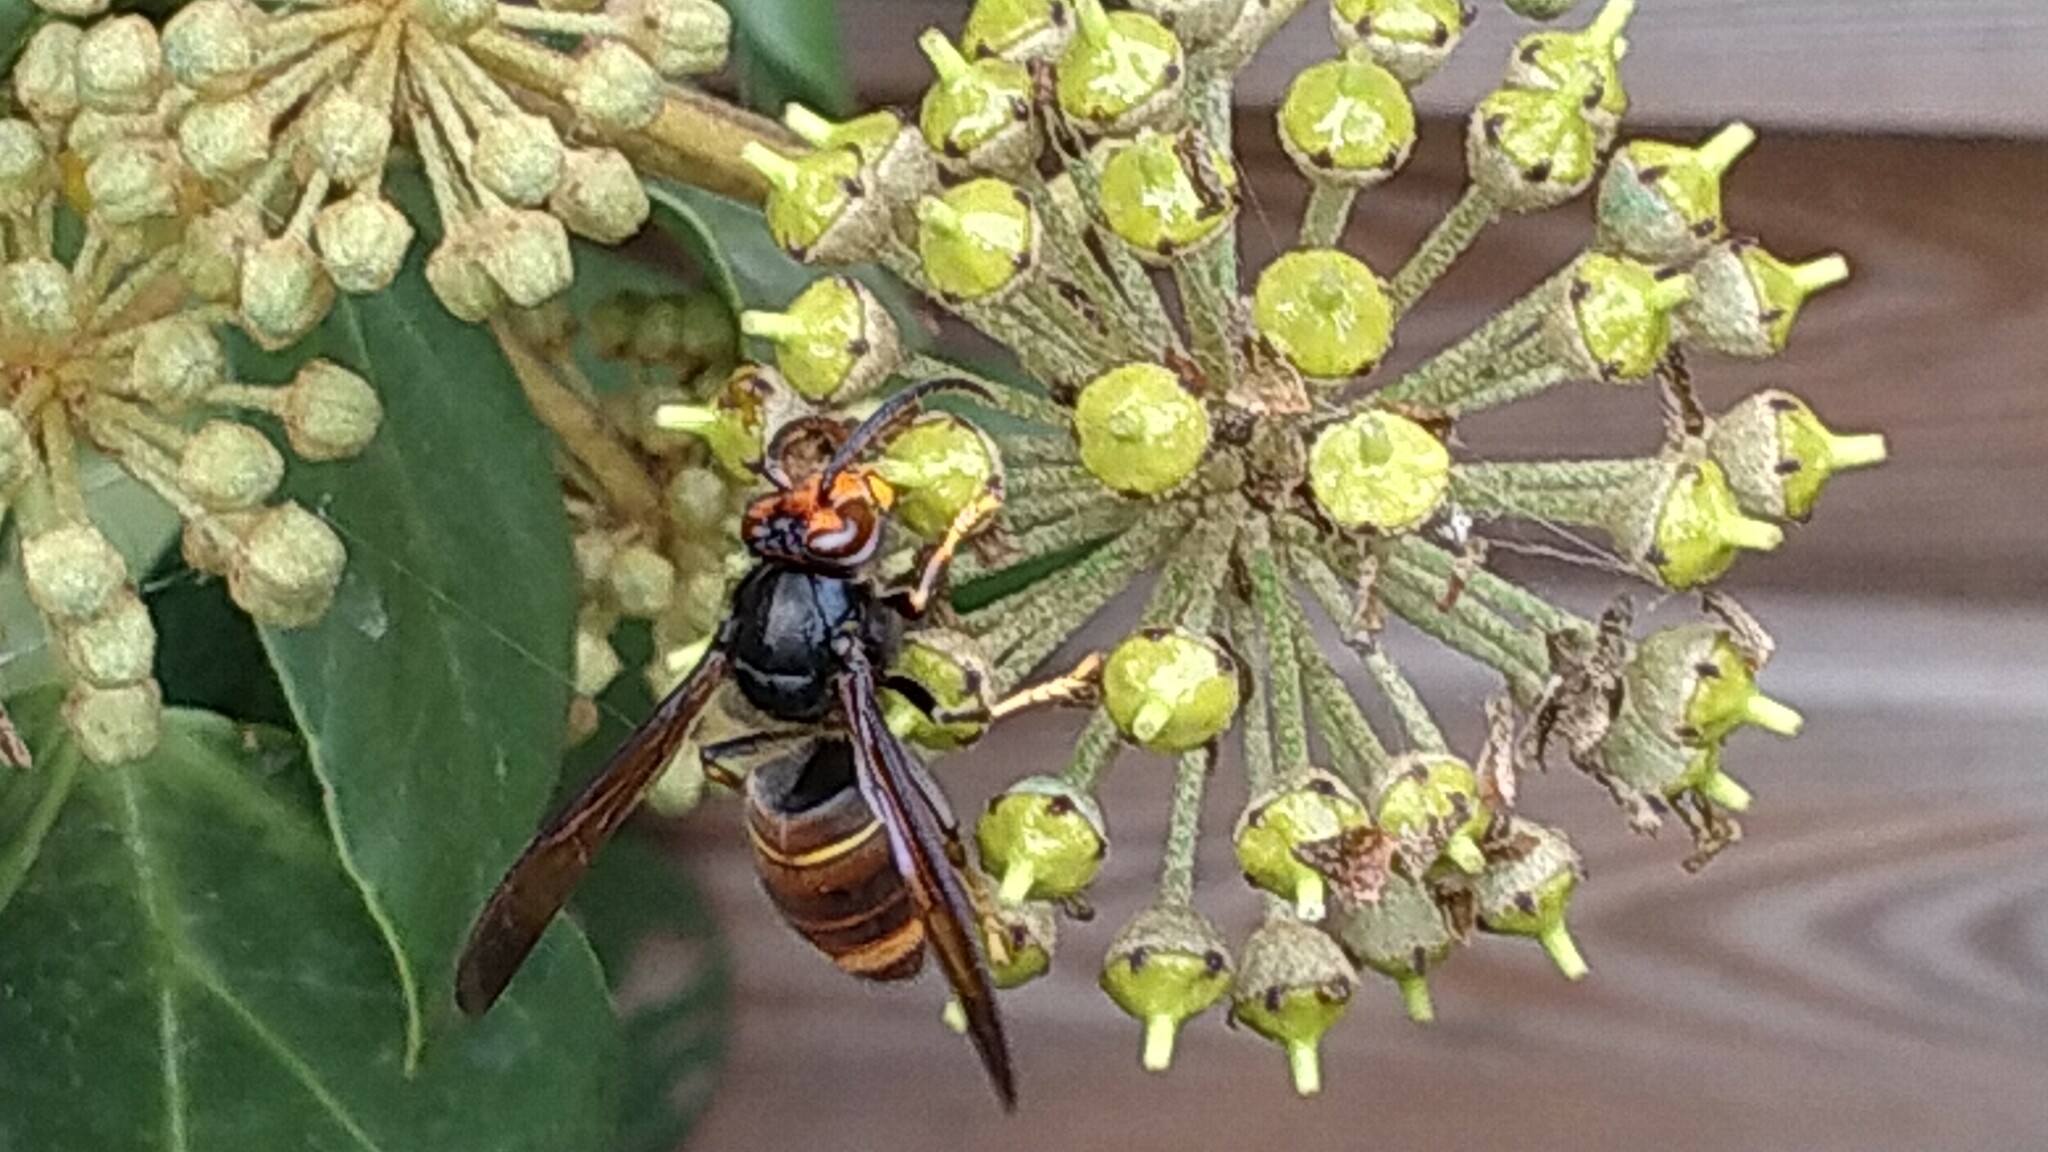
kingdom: Animalia
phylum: Arthropoda
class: Insecta
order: Hymenoptera
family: Vespidae
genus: Vespa
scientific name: Vespa velutina
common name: Asian hornet
